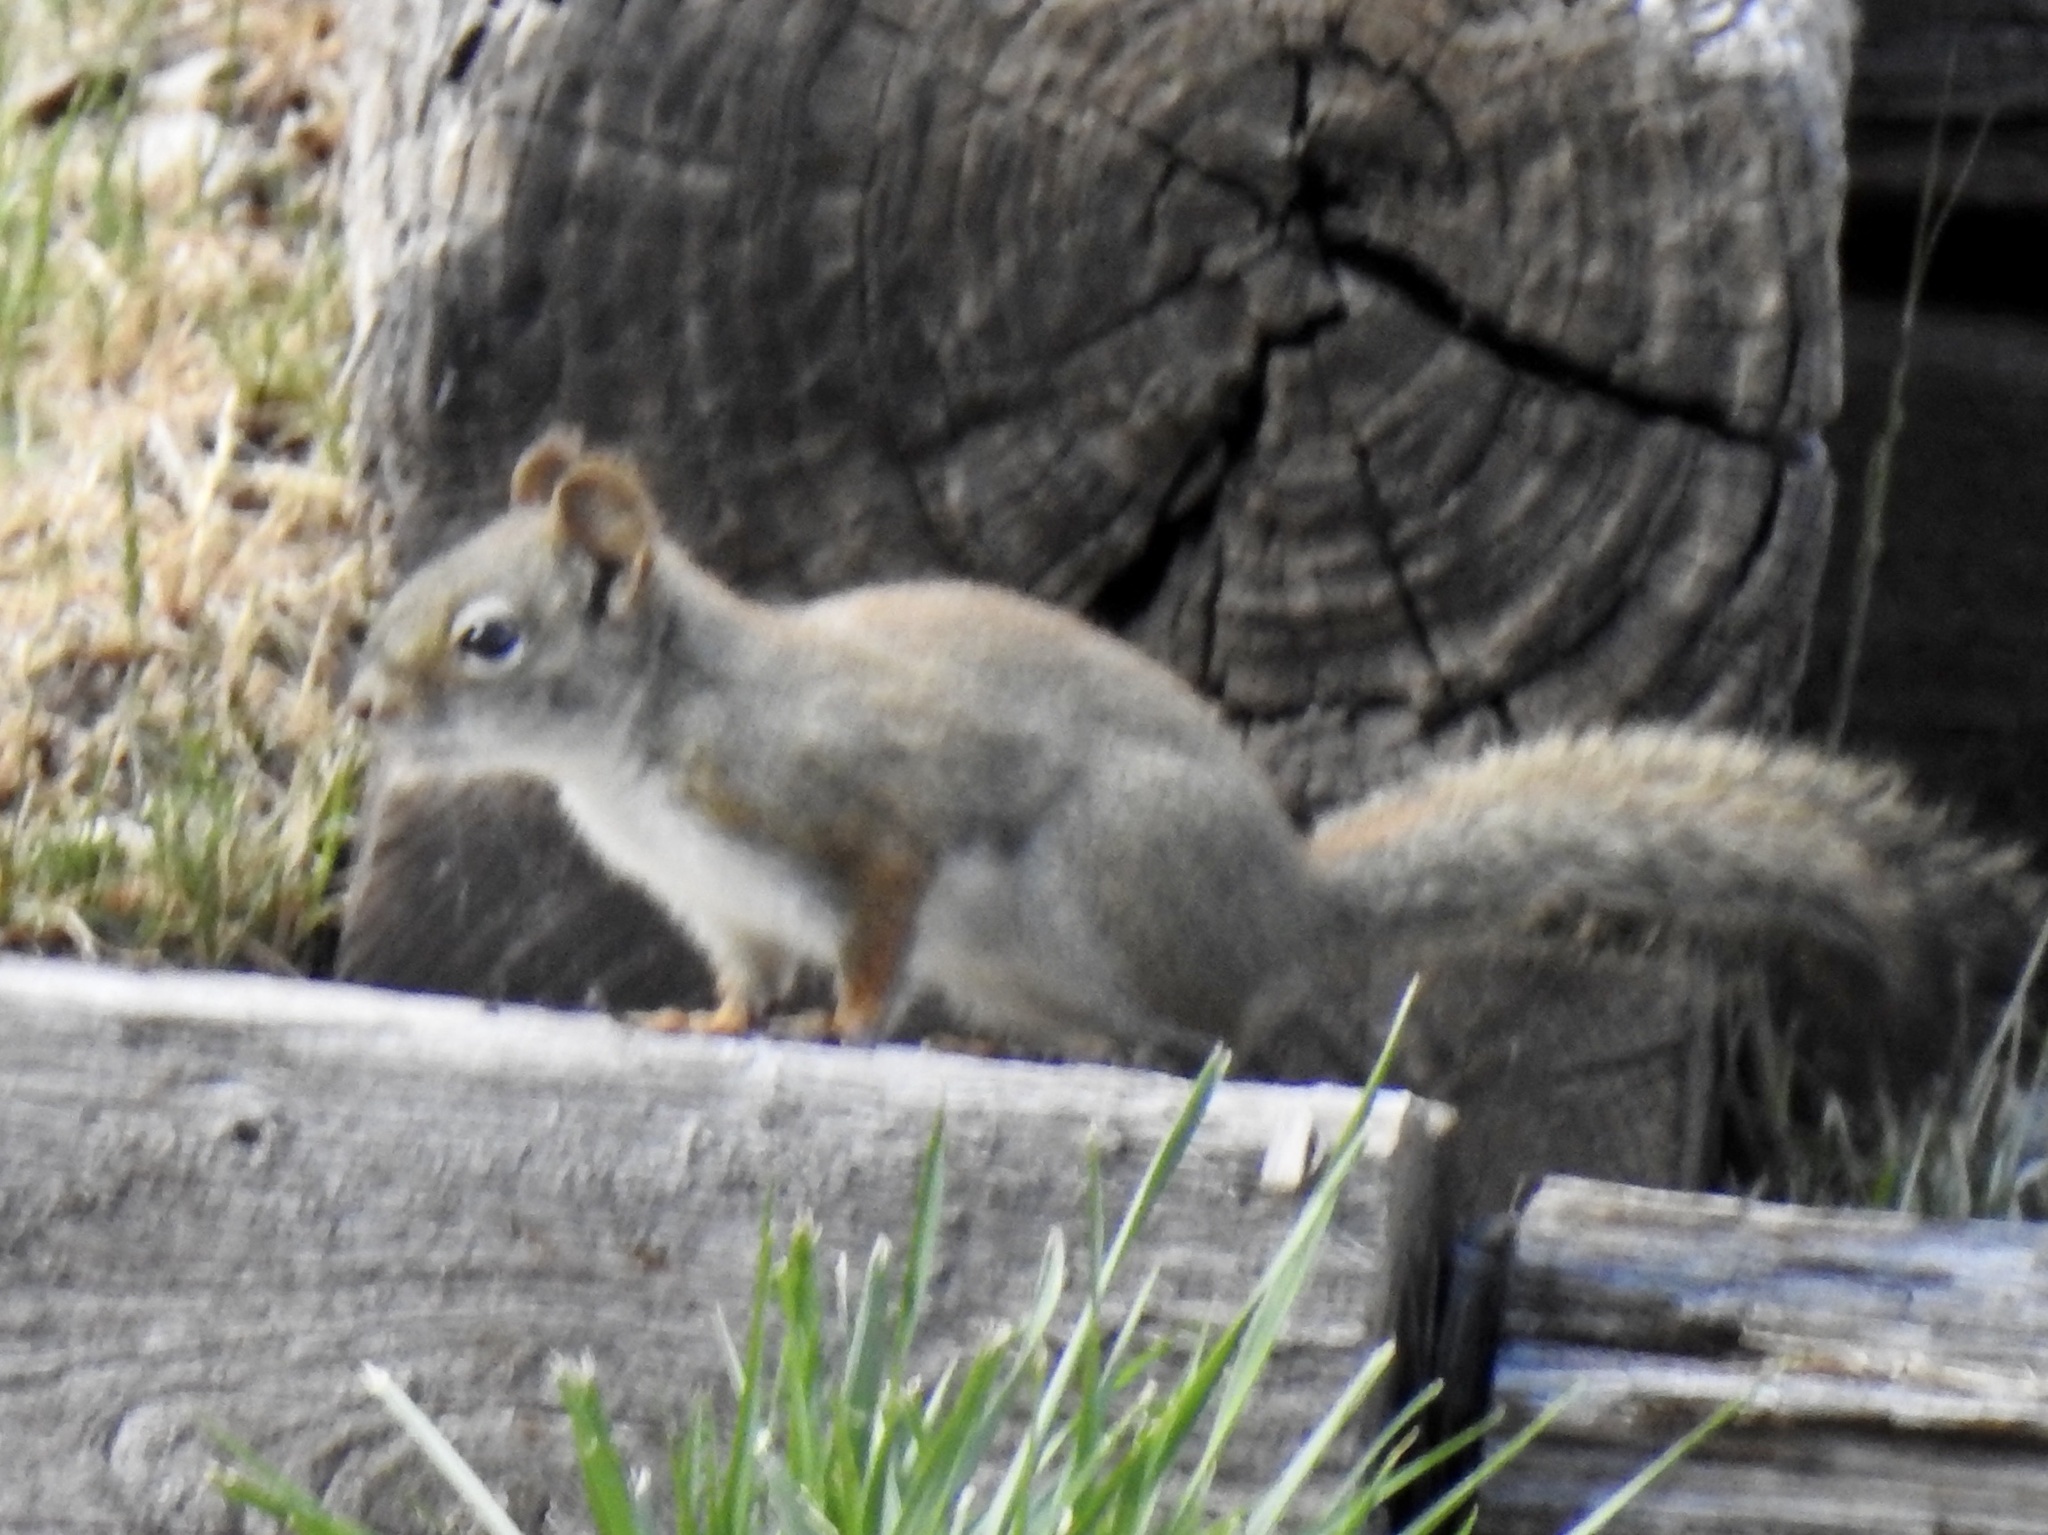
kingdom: Animalia
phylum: Chordata
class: Mammalia
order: Rodentia
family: Sciuridae
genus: Tamiasciurus
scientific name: Tamiasciurus hudsonicus
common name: Red squirrel
